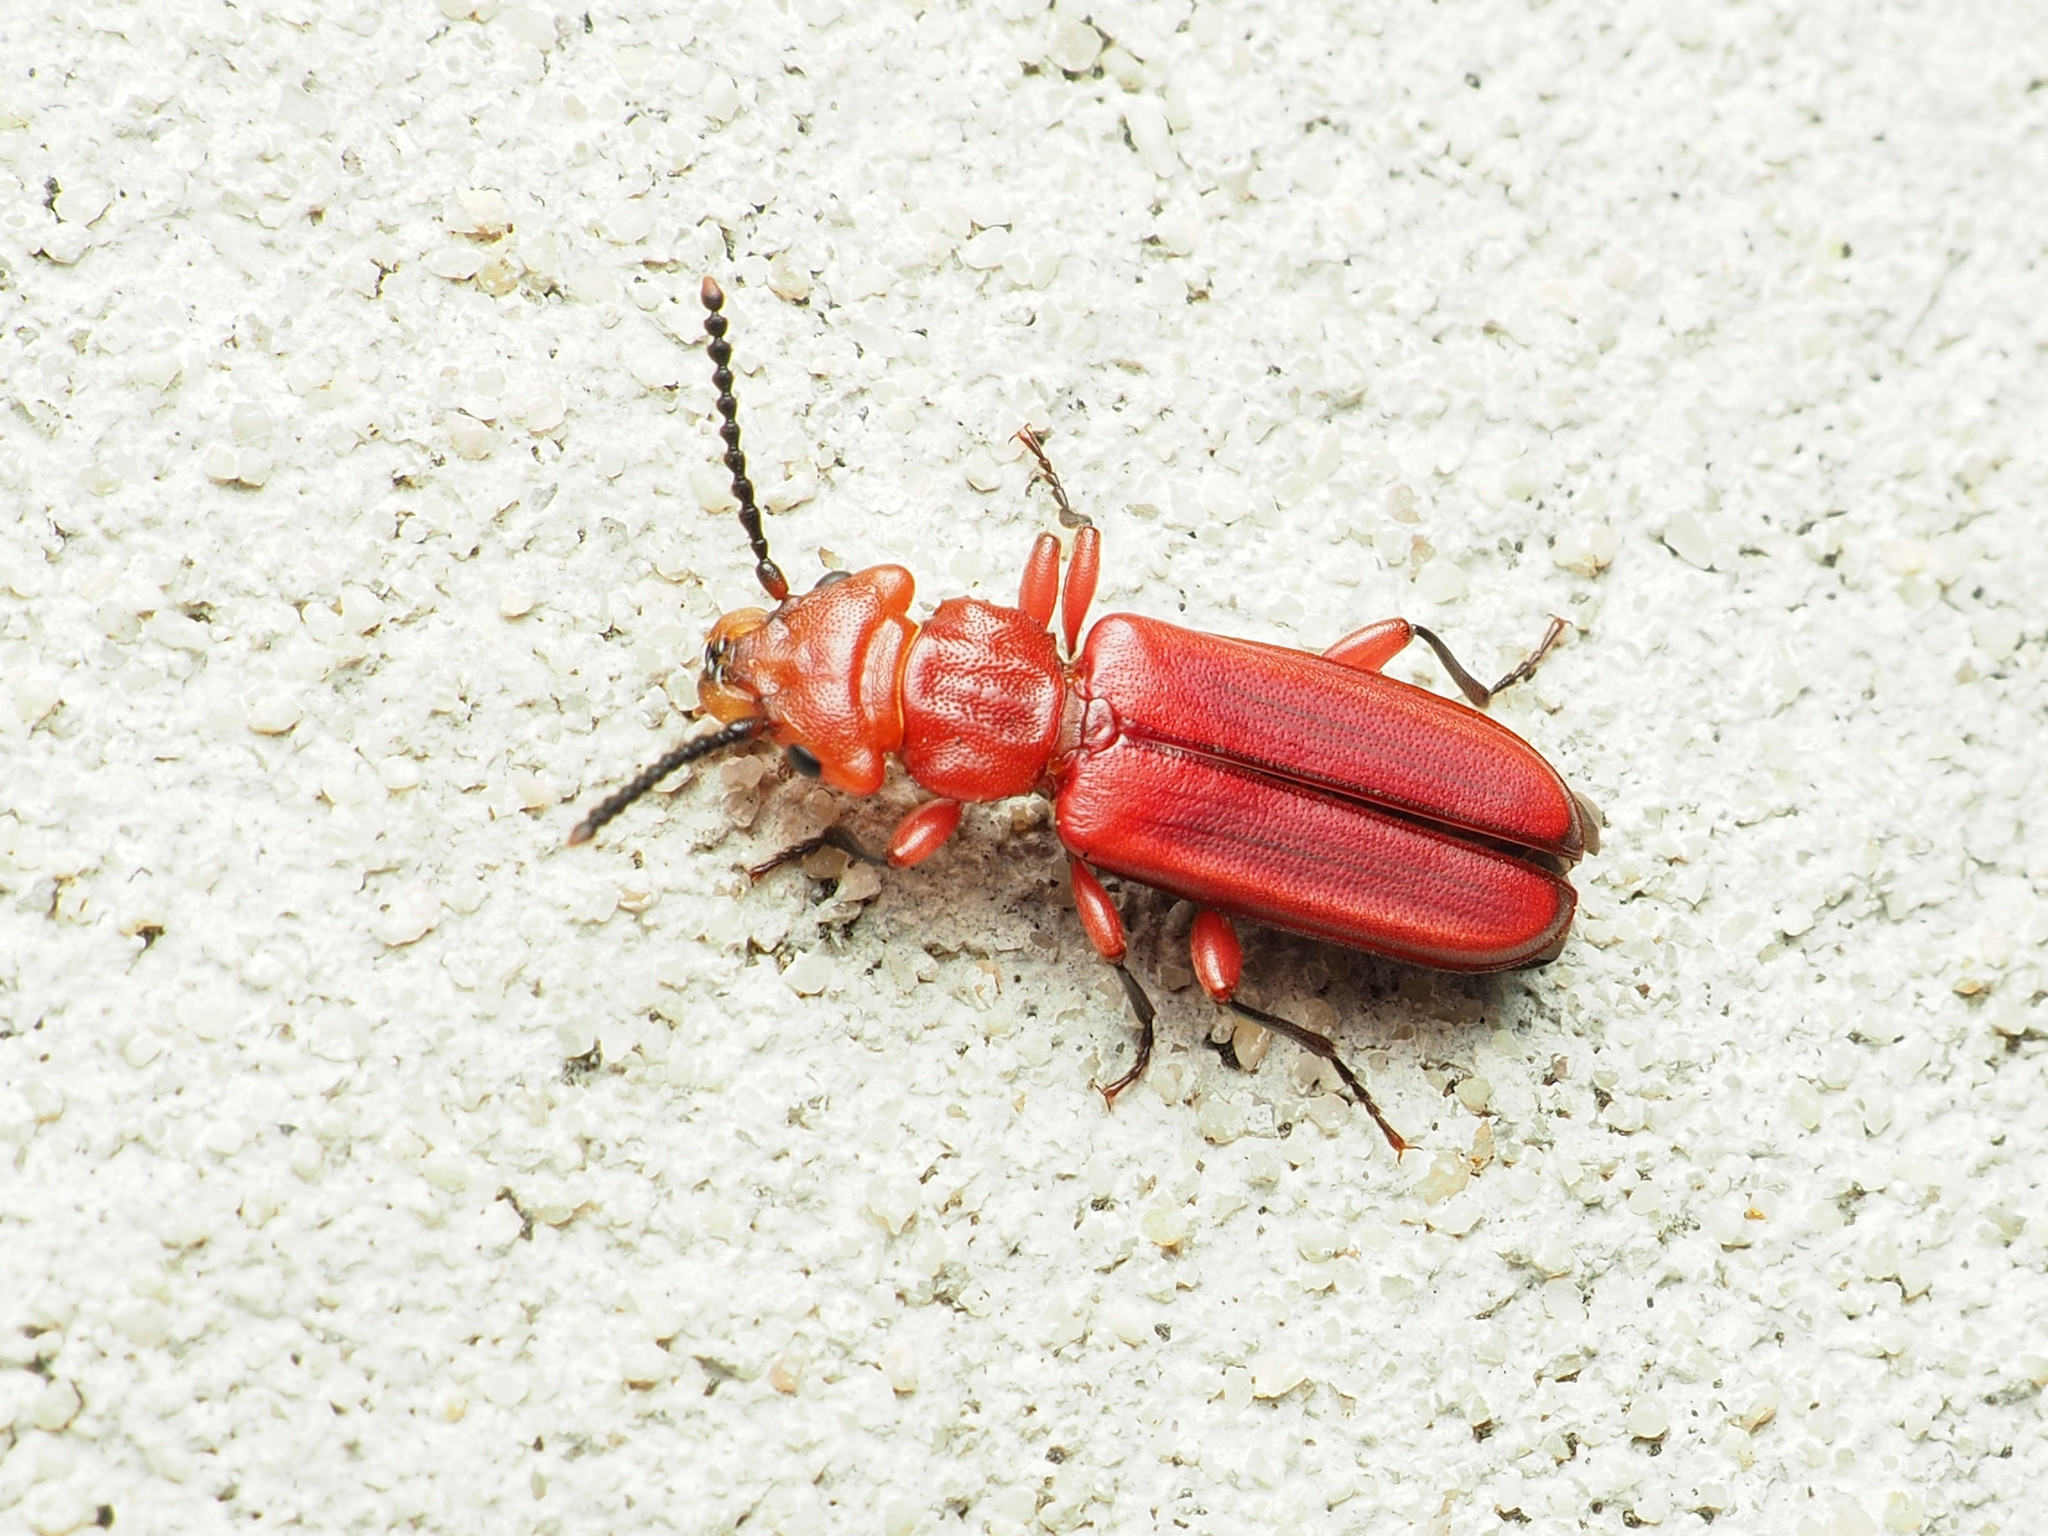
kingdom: Animalia
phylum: Arthropoda
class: Insecta
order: Coleoptera
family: Cucujidae
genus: Cucujus
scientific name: Cucujus clavipes
